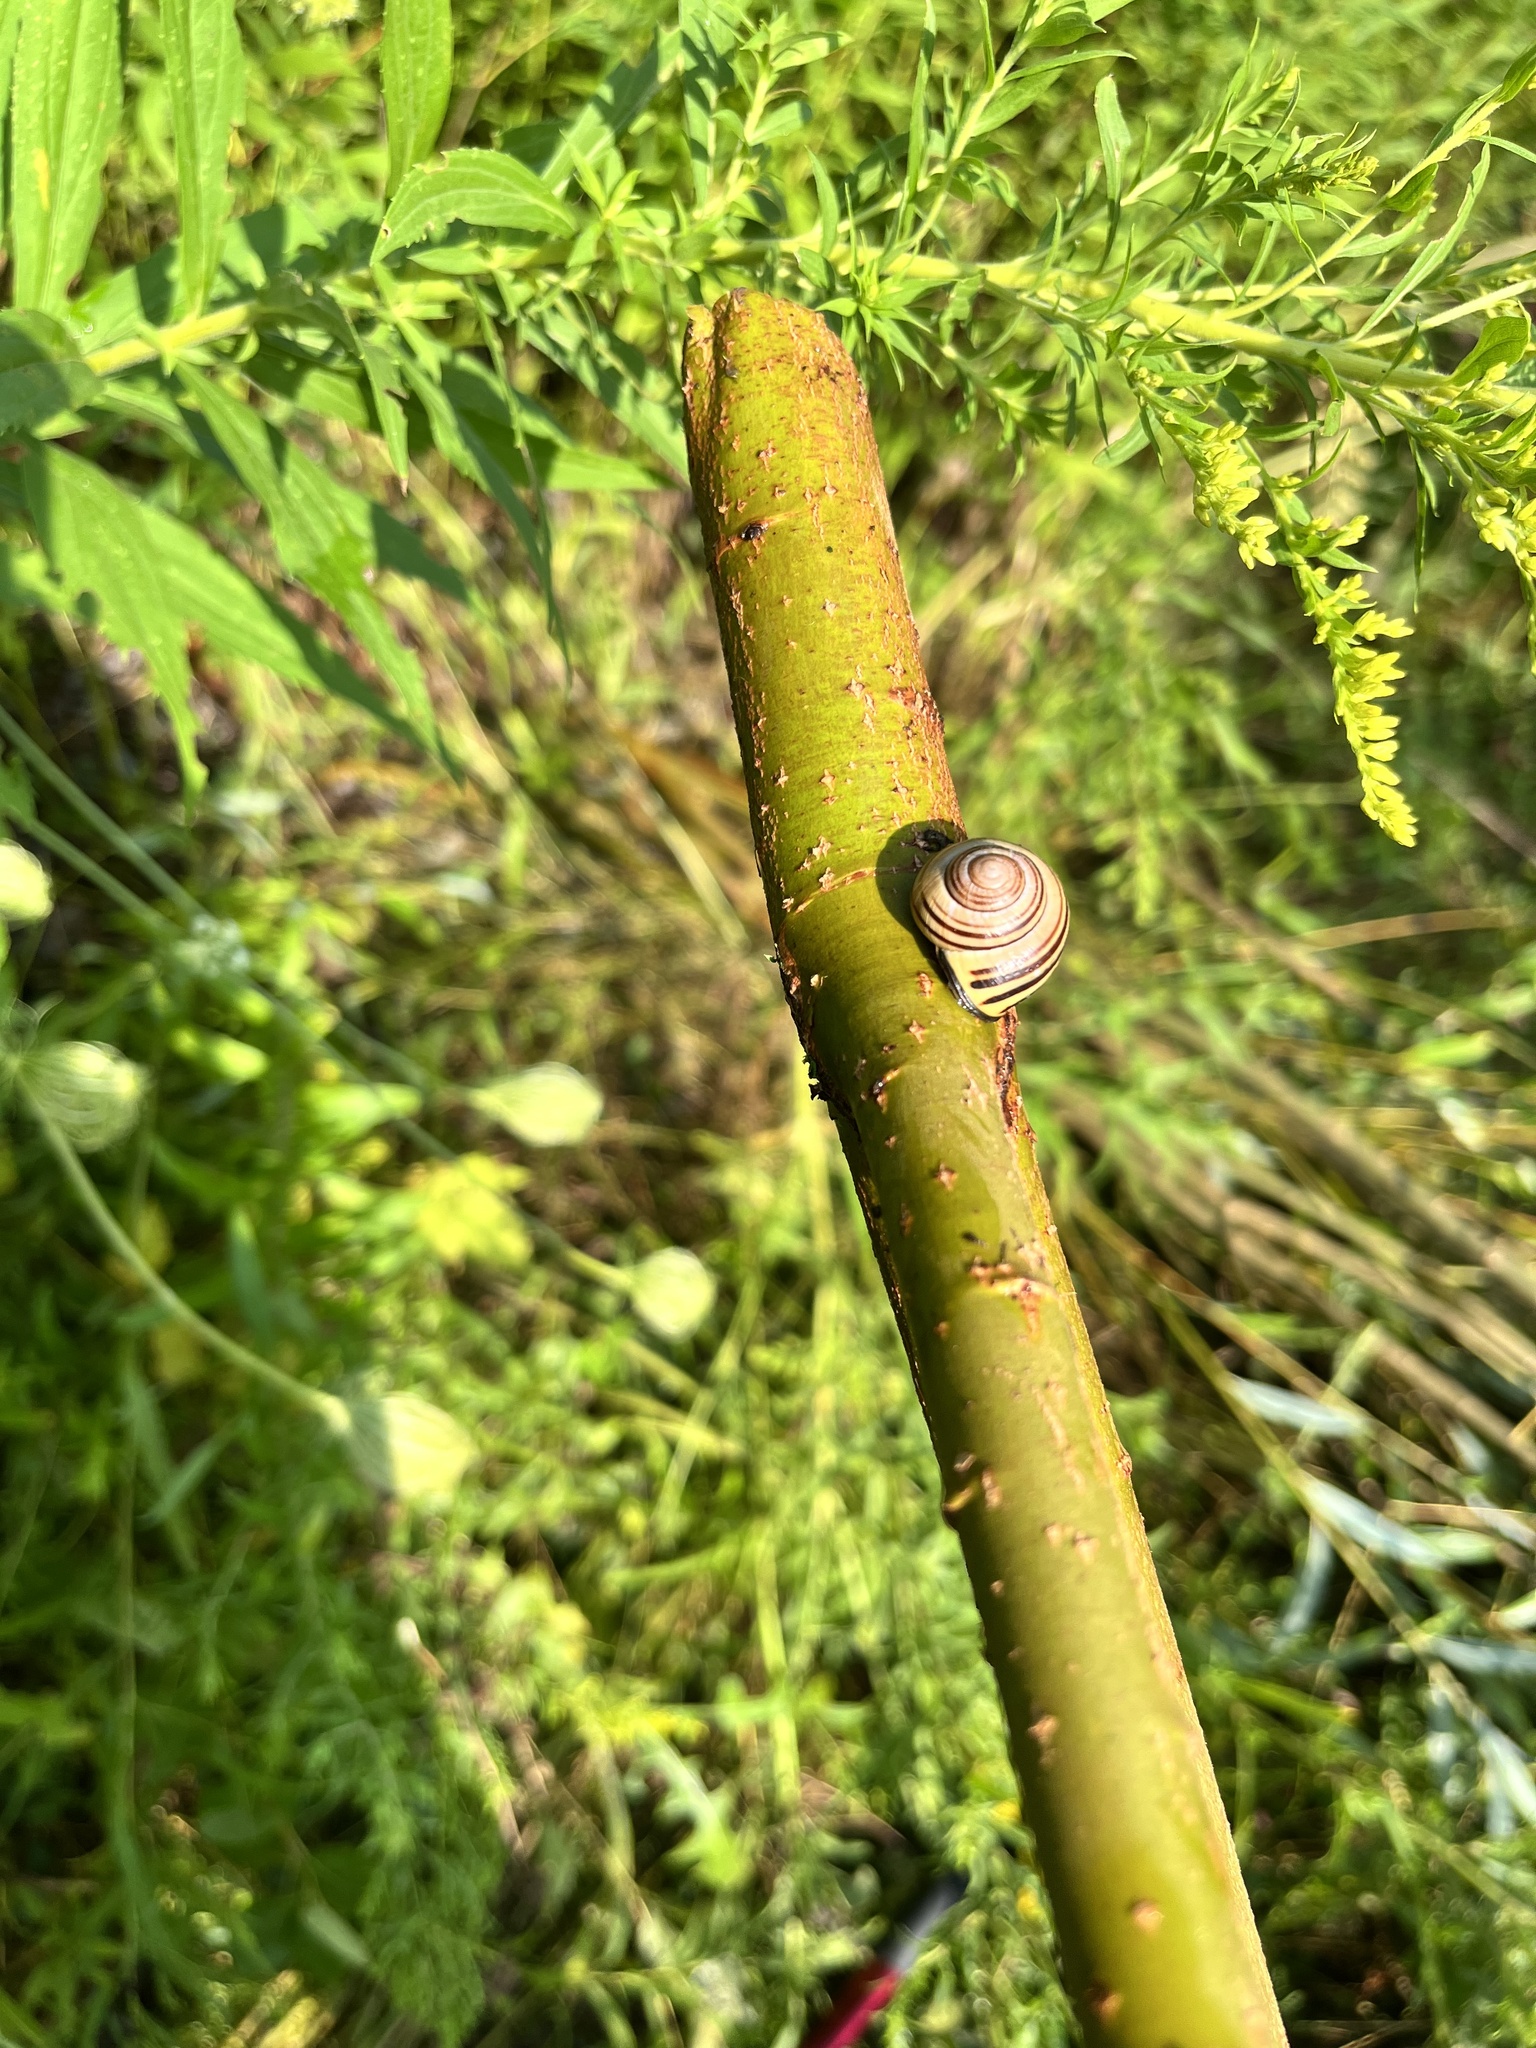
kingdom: Animalia
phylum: Mollusca
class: Gastropoda
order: Stylommatophora
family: Helicidae
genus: Cepaea
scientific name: Cepaea nemoralis
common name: Grovesnail
